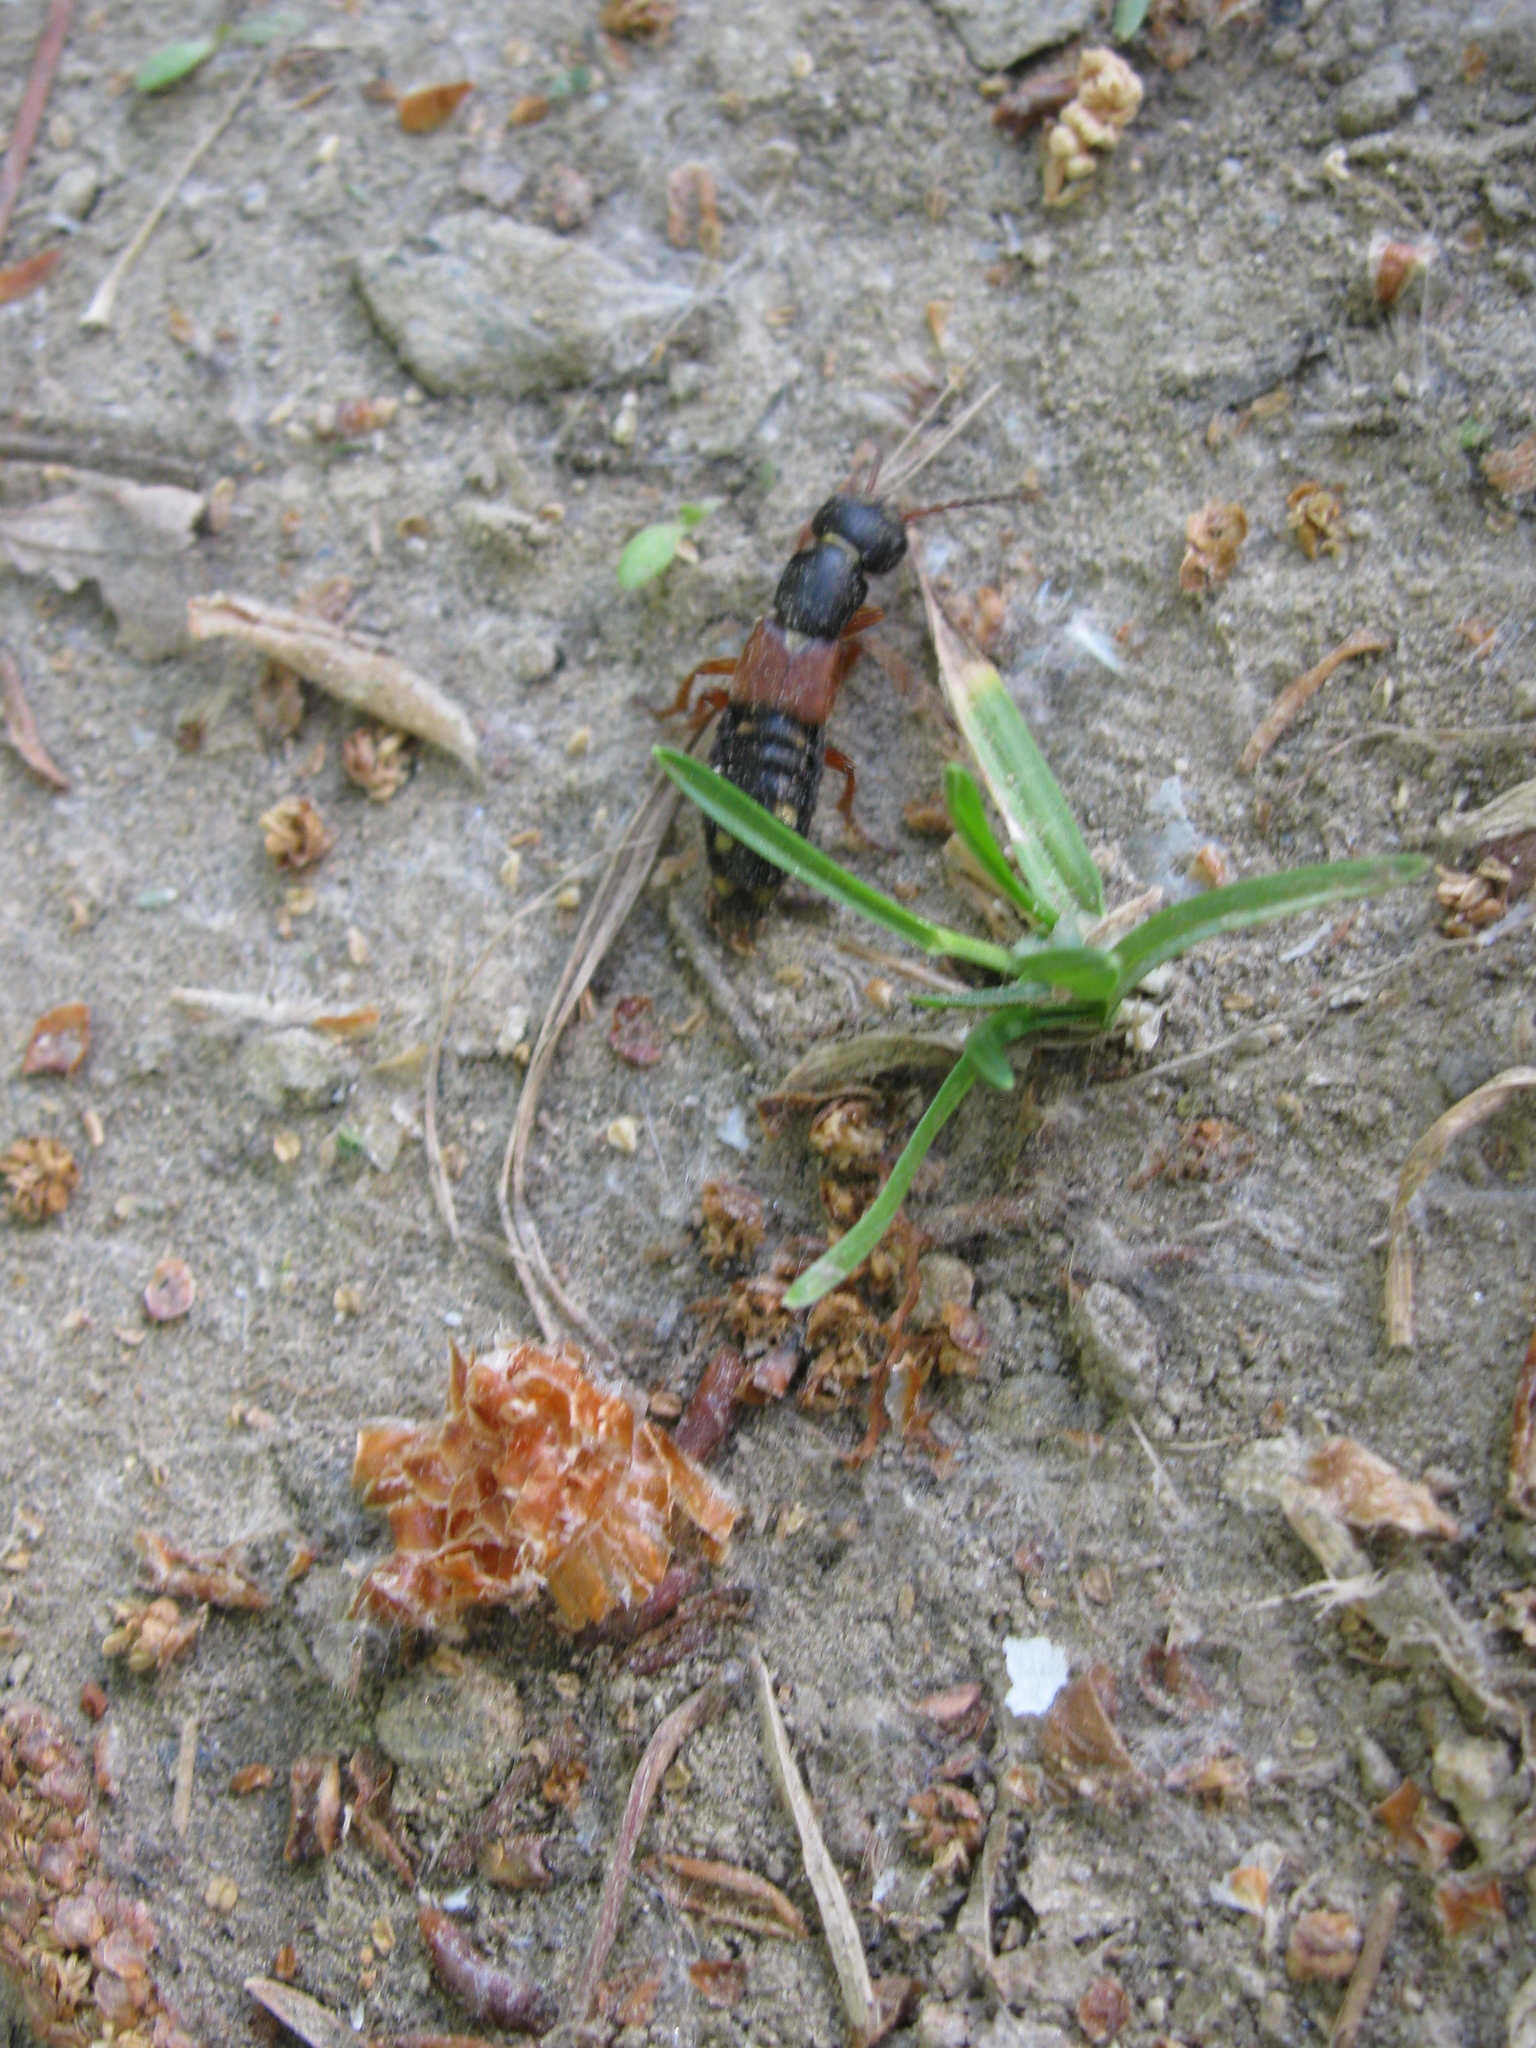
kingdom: Animalia
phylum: Arthropoda
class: Insecta
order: Coleoptera
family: Staphylinidae
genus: Staphylinus
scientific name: Staphylinus erythropterus
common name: Staph beetle
